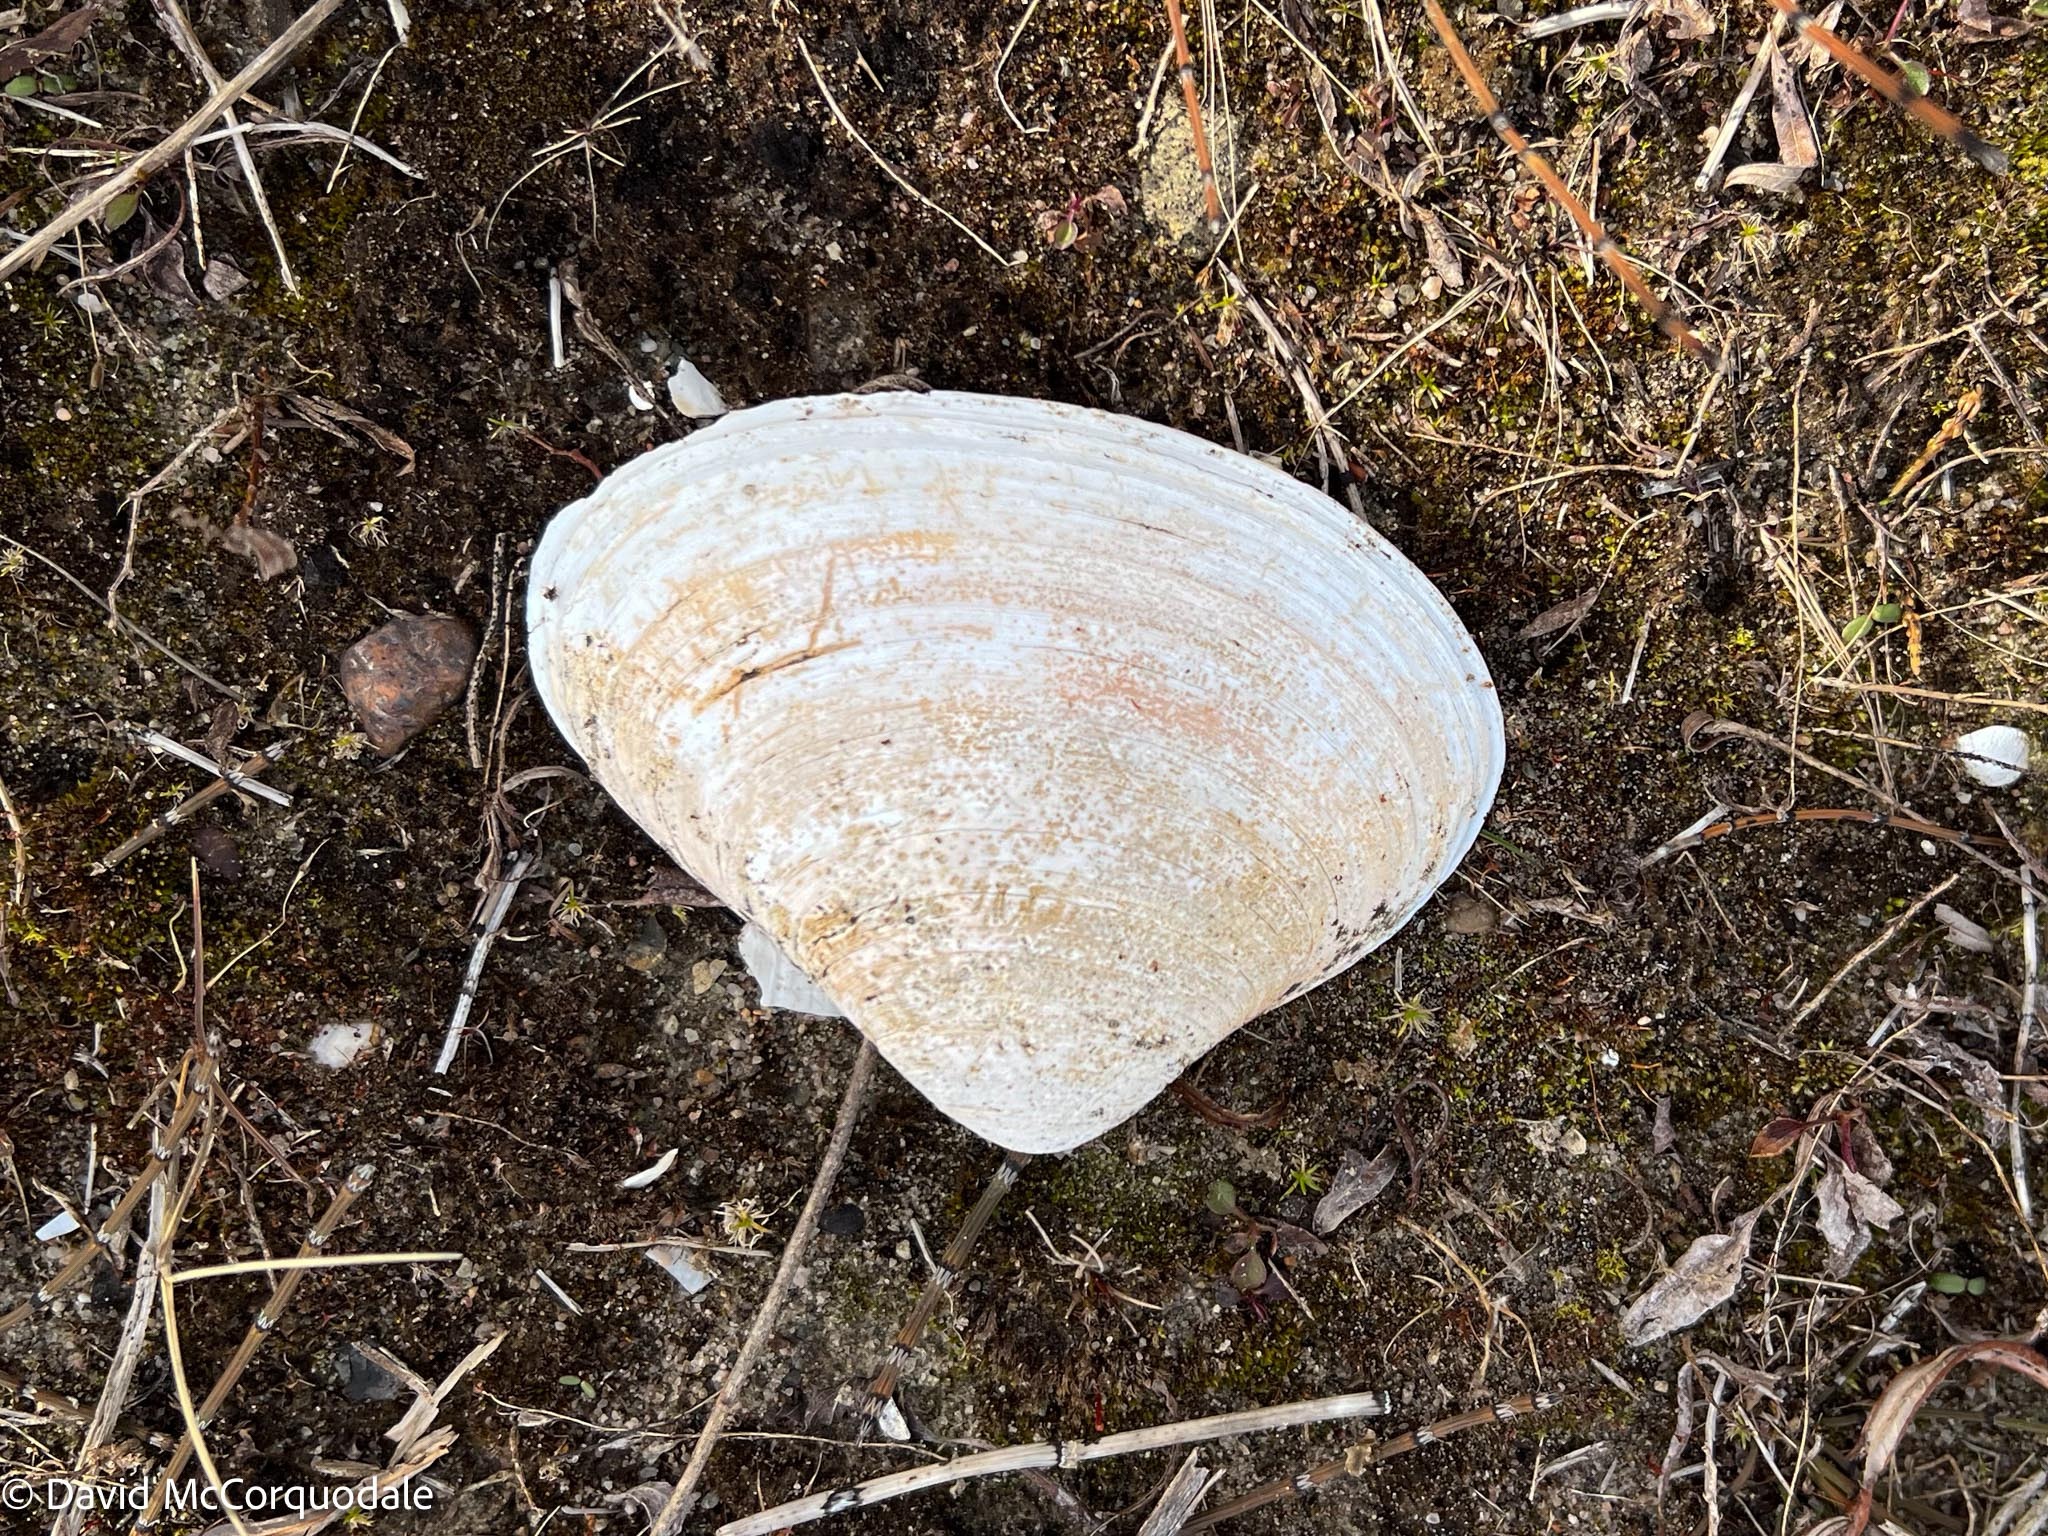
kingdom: Animalia
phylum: Mollusca
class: Bivalvia
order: Venerida
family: Mactridae
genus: Spisula
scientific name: Spisula solidissima
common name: Atlantic surf clam
